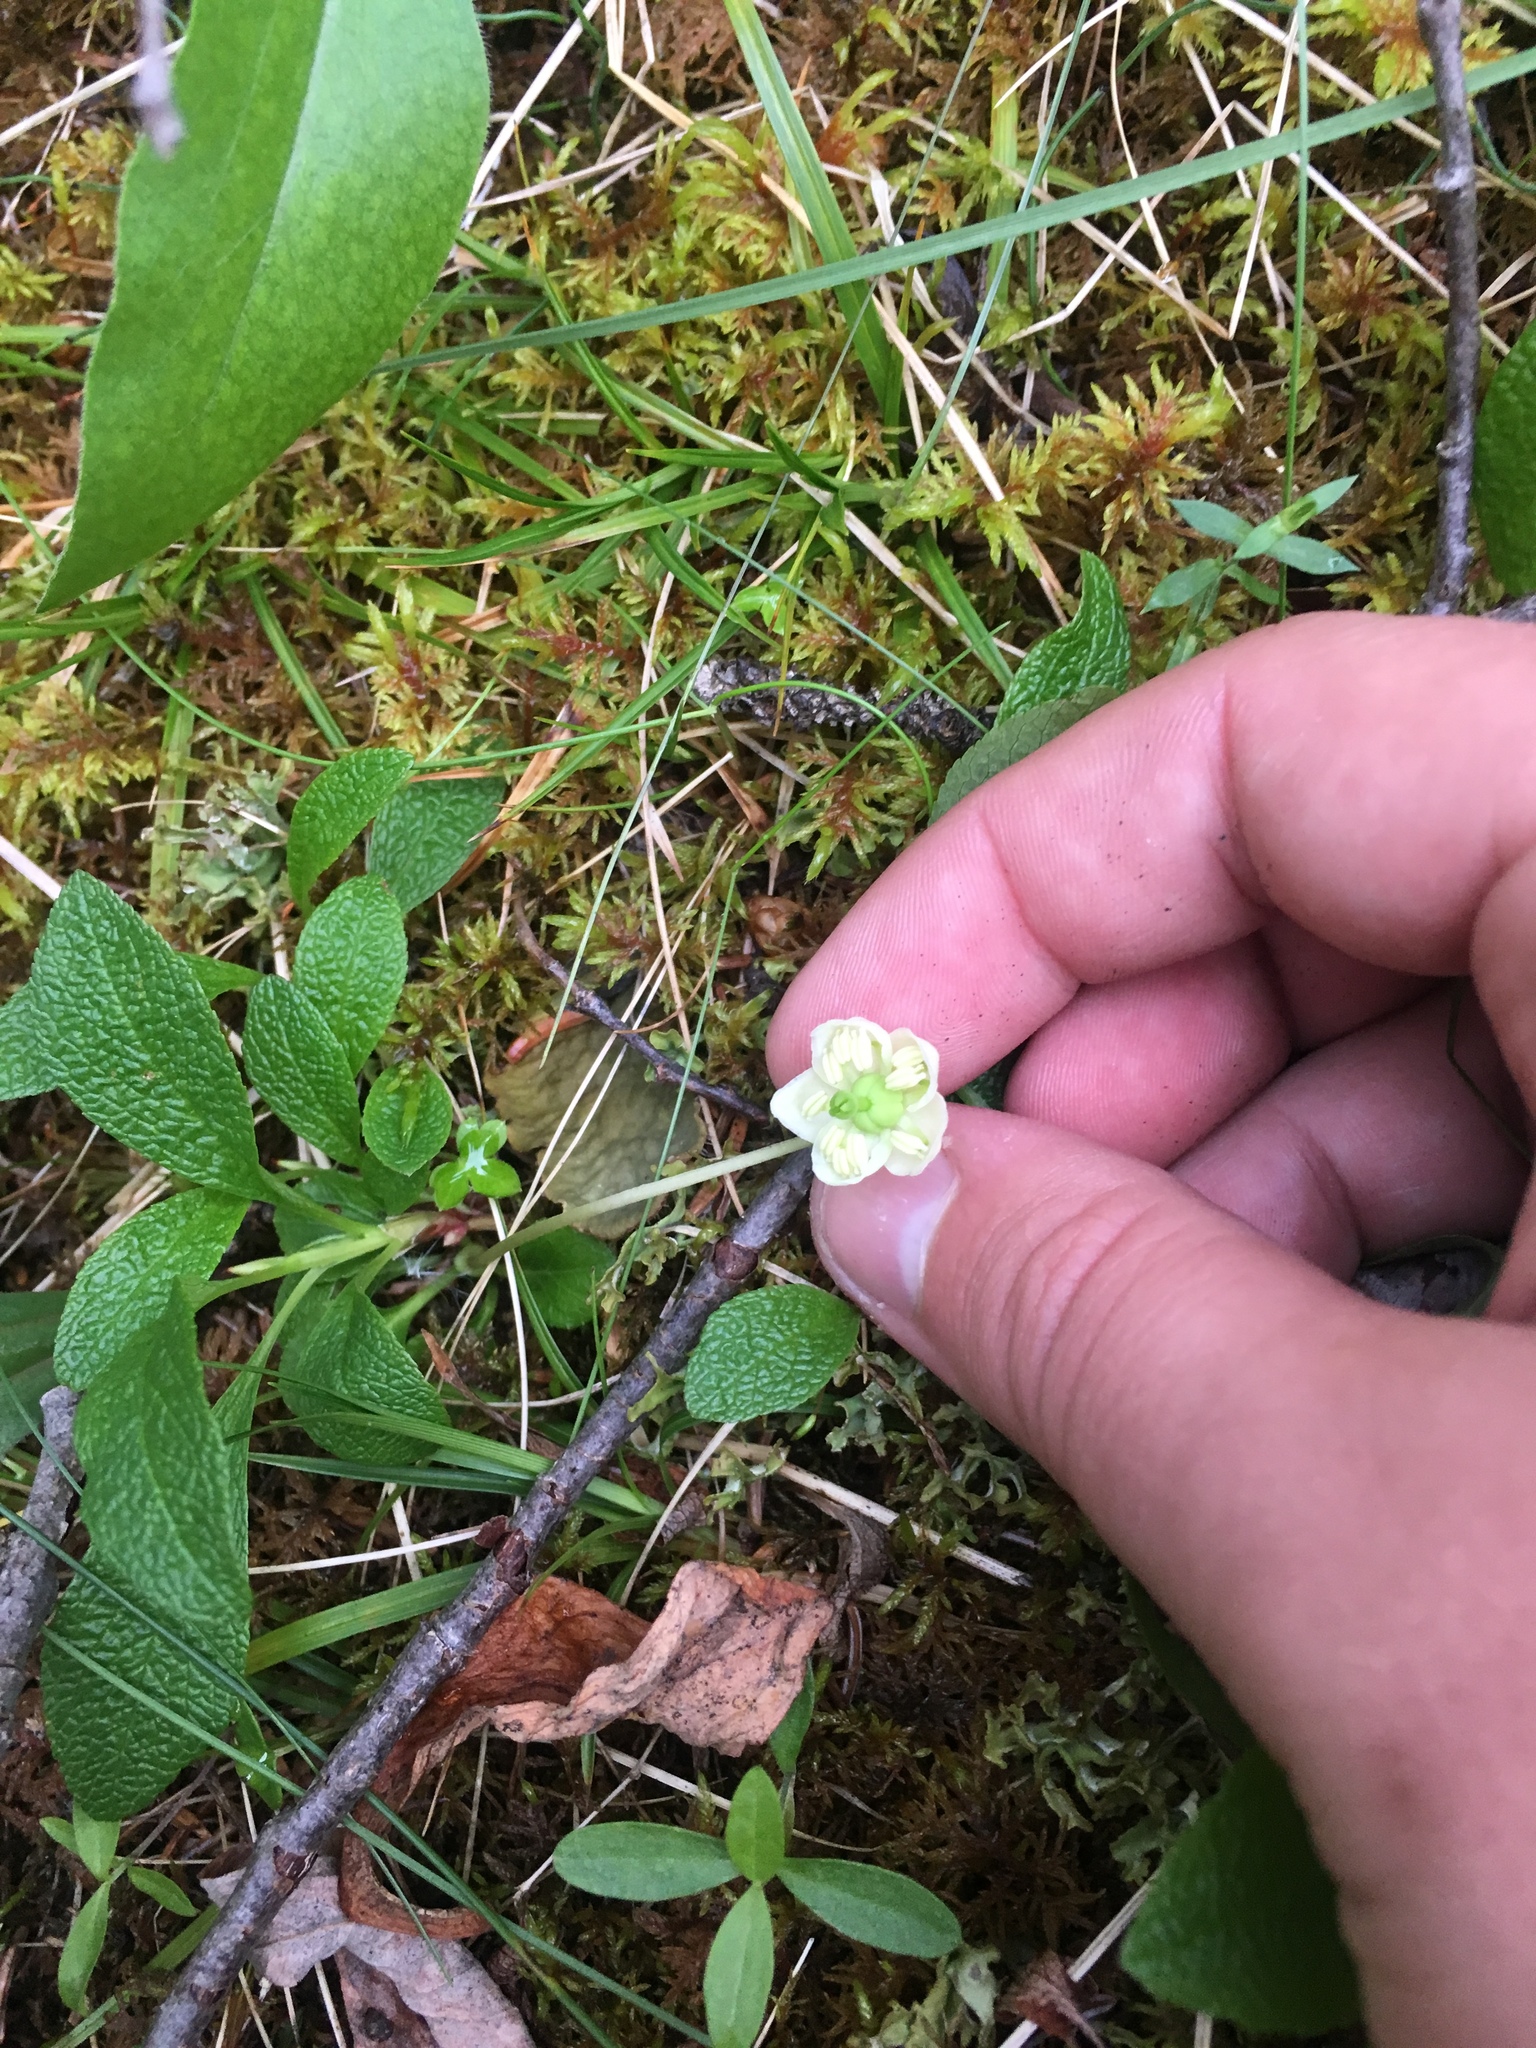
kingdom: Plantae
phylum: Tracheophyta
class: Magnoliopsida
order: Ericales
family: Ericaceae
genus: Moneses
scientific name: Moneses uniflora
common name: One-flowered wintergreen
